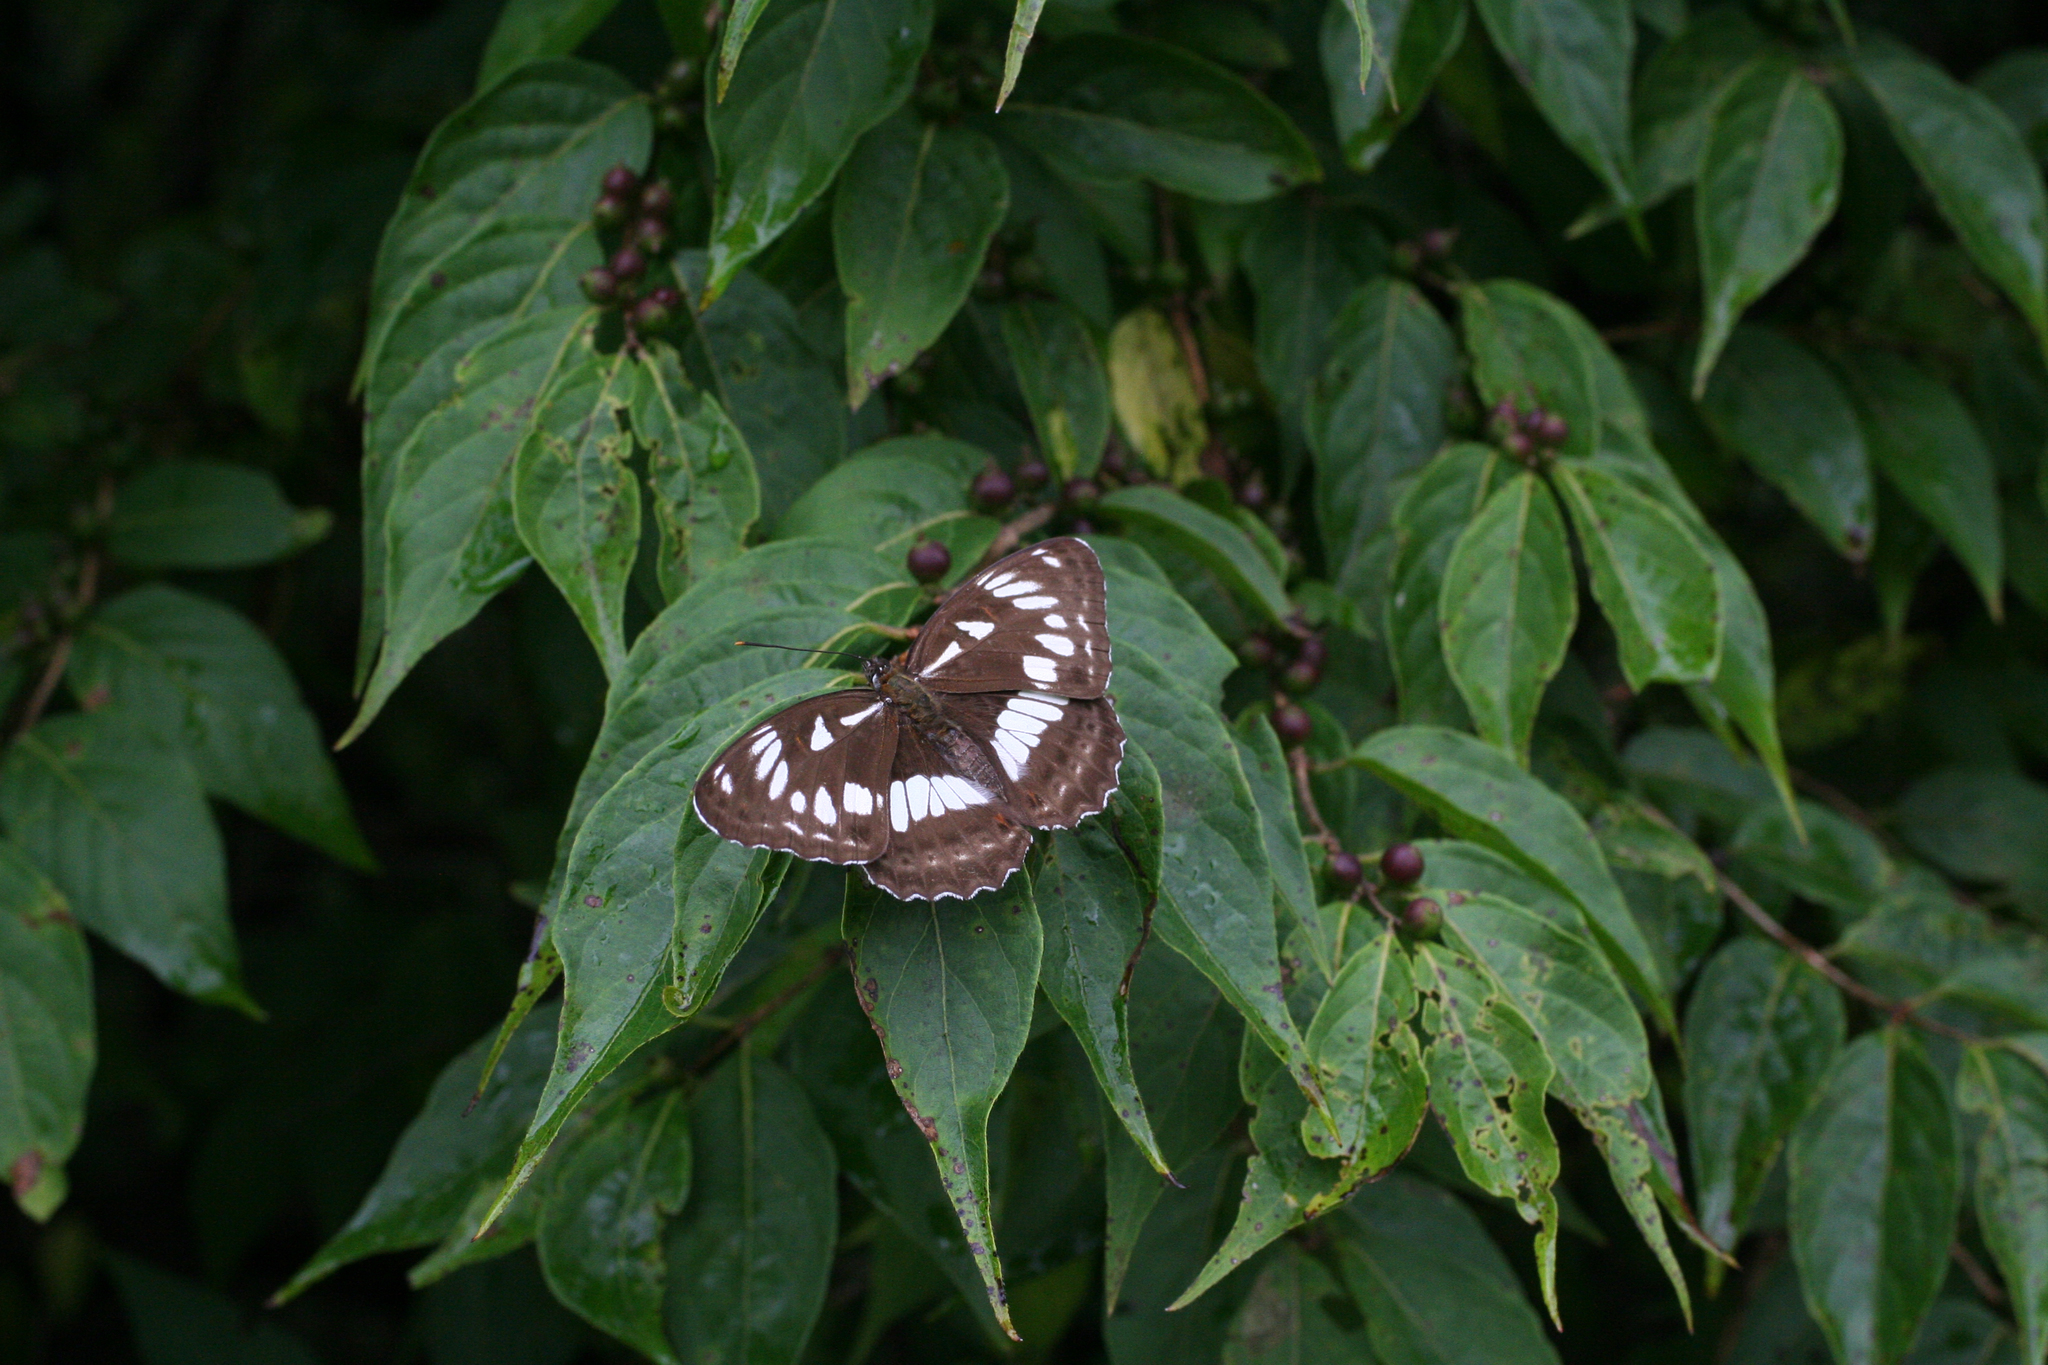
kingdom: Plantae
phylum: Tracheophyta
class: Magnoliopsida
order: Dipsacales
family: Caprifoliaceae
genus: Lonicera
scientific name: Lonicera maackii
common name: Amur honeysuckle
